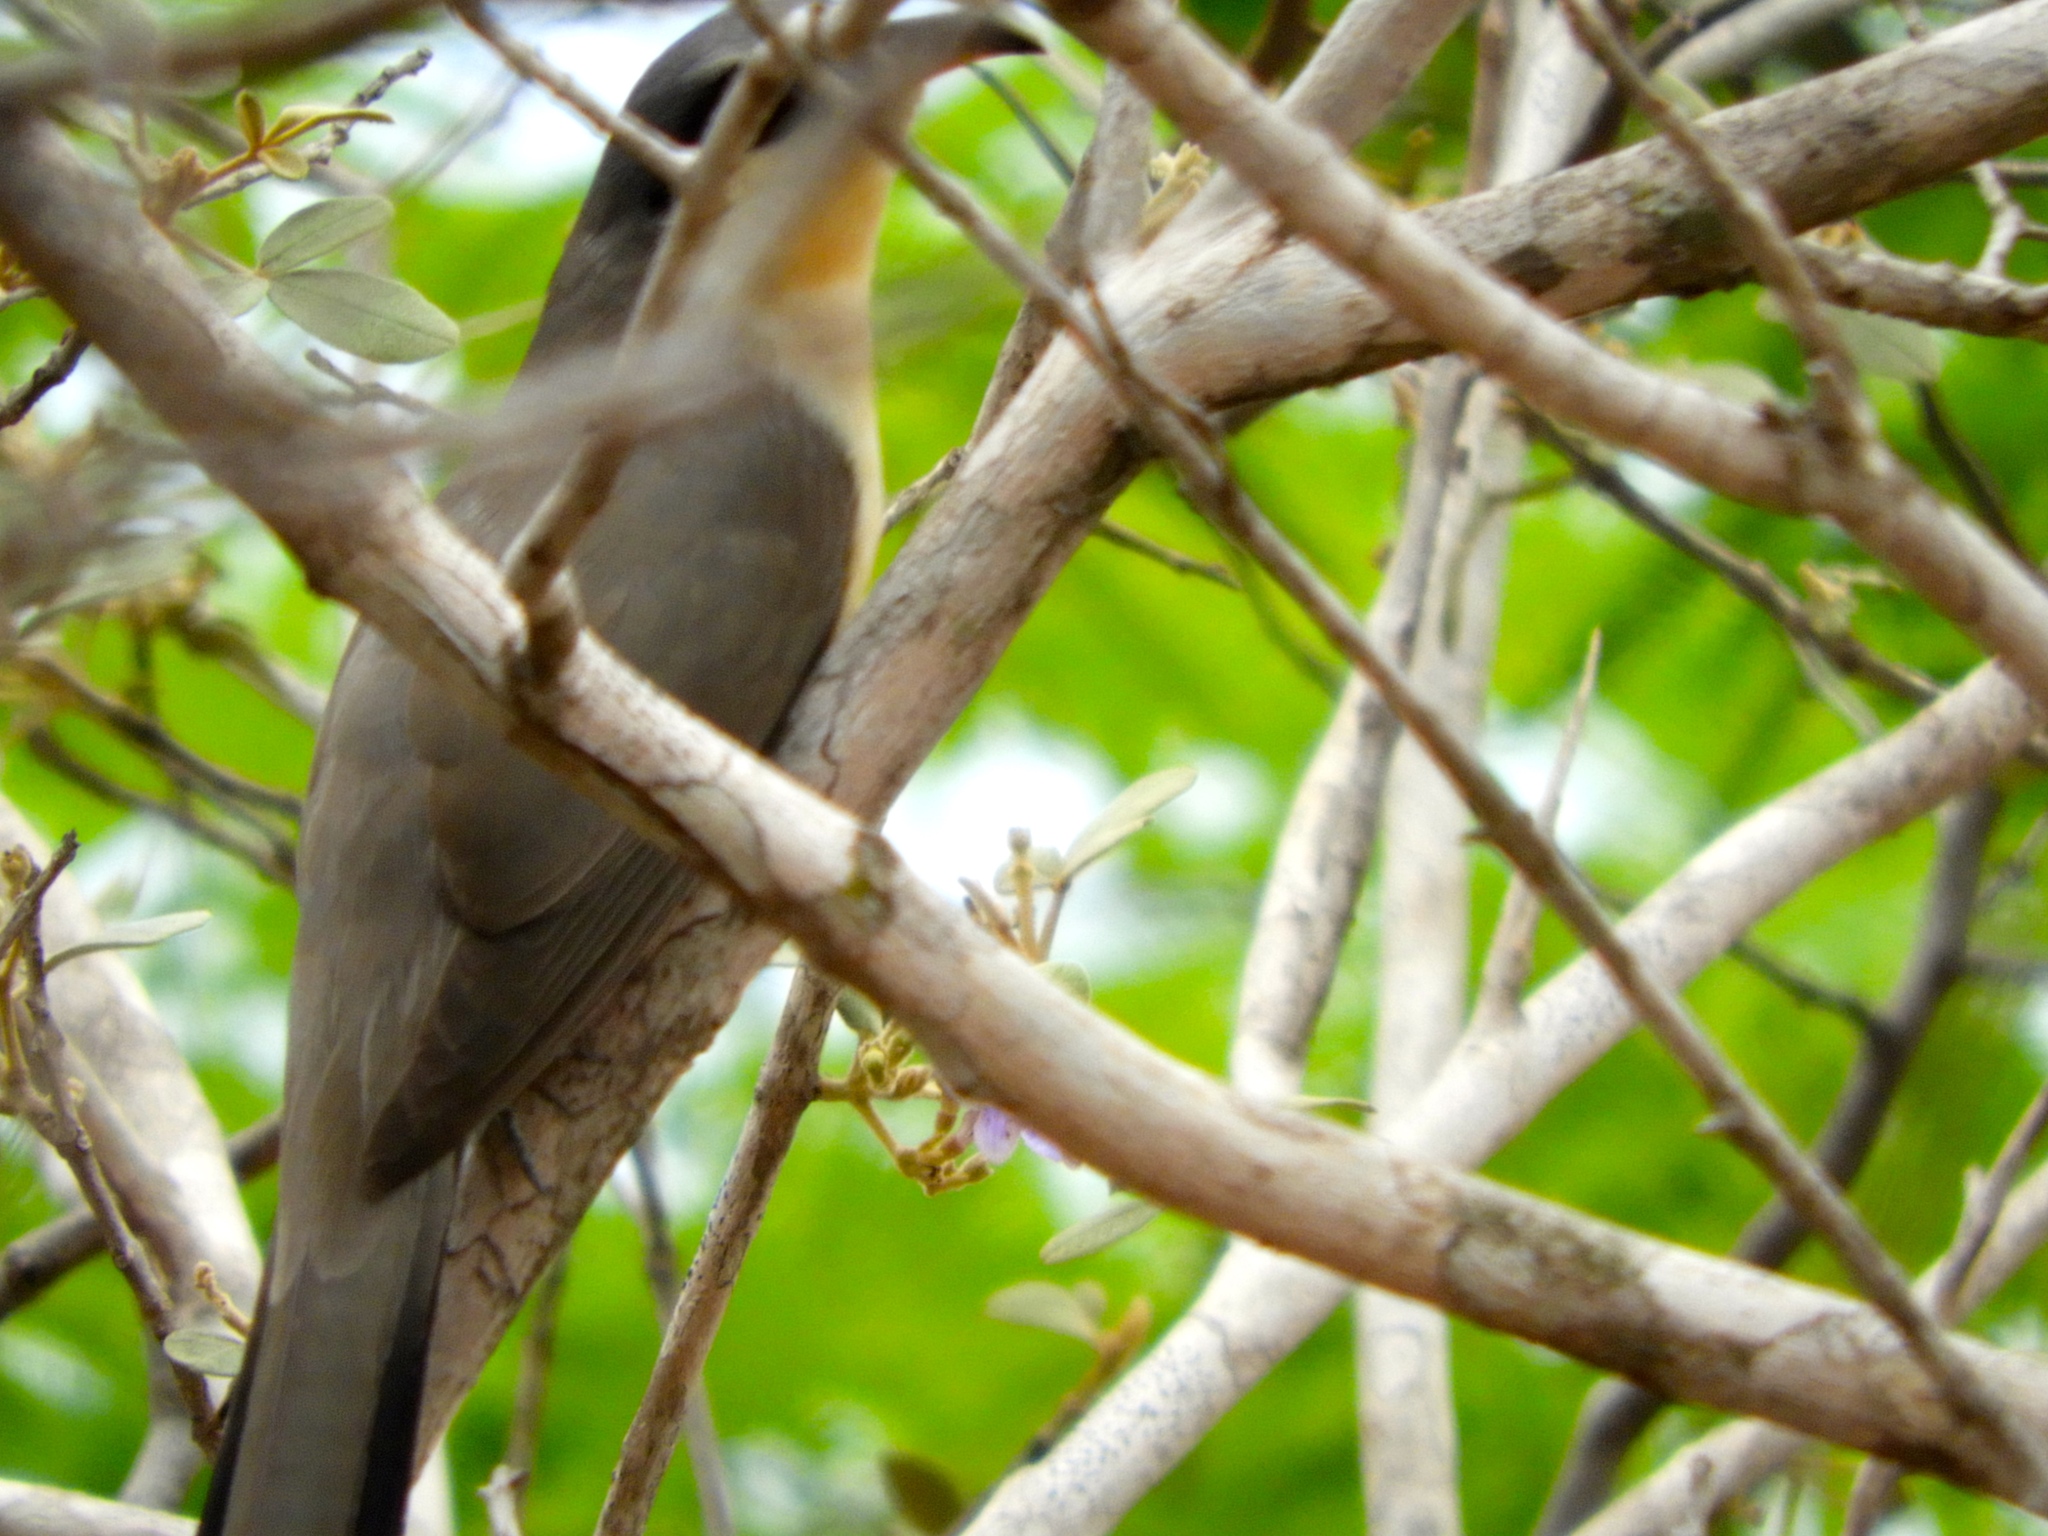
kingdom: Animalia
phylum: Chordata
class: Aves
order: Cuculiformes
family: Cuculidae
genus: Coccyzus
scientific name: Coccyzus minor
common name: Mangrove cuckoo
